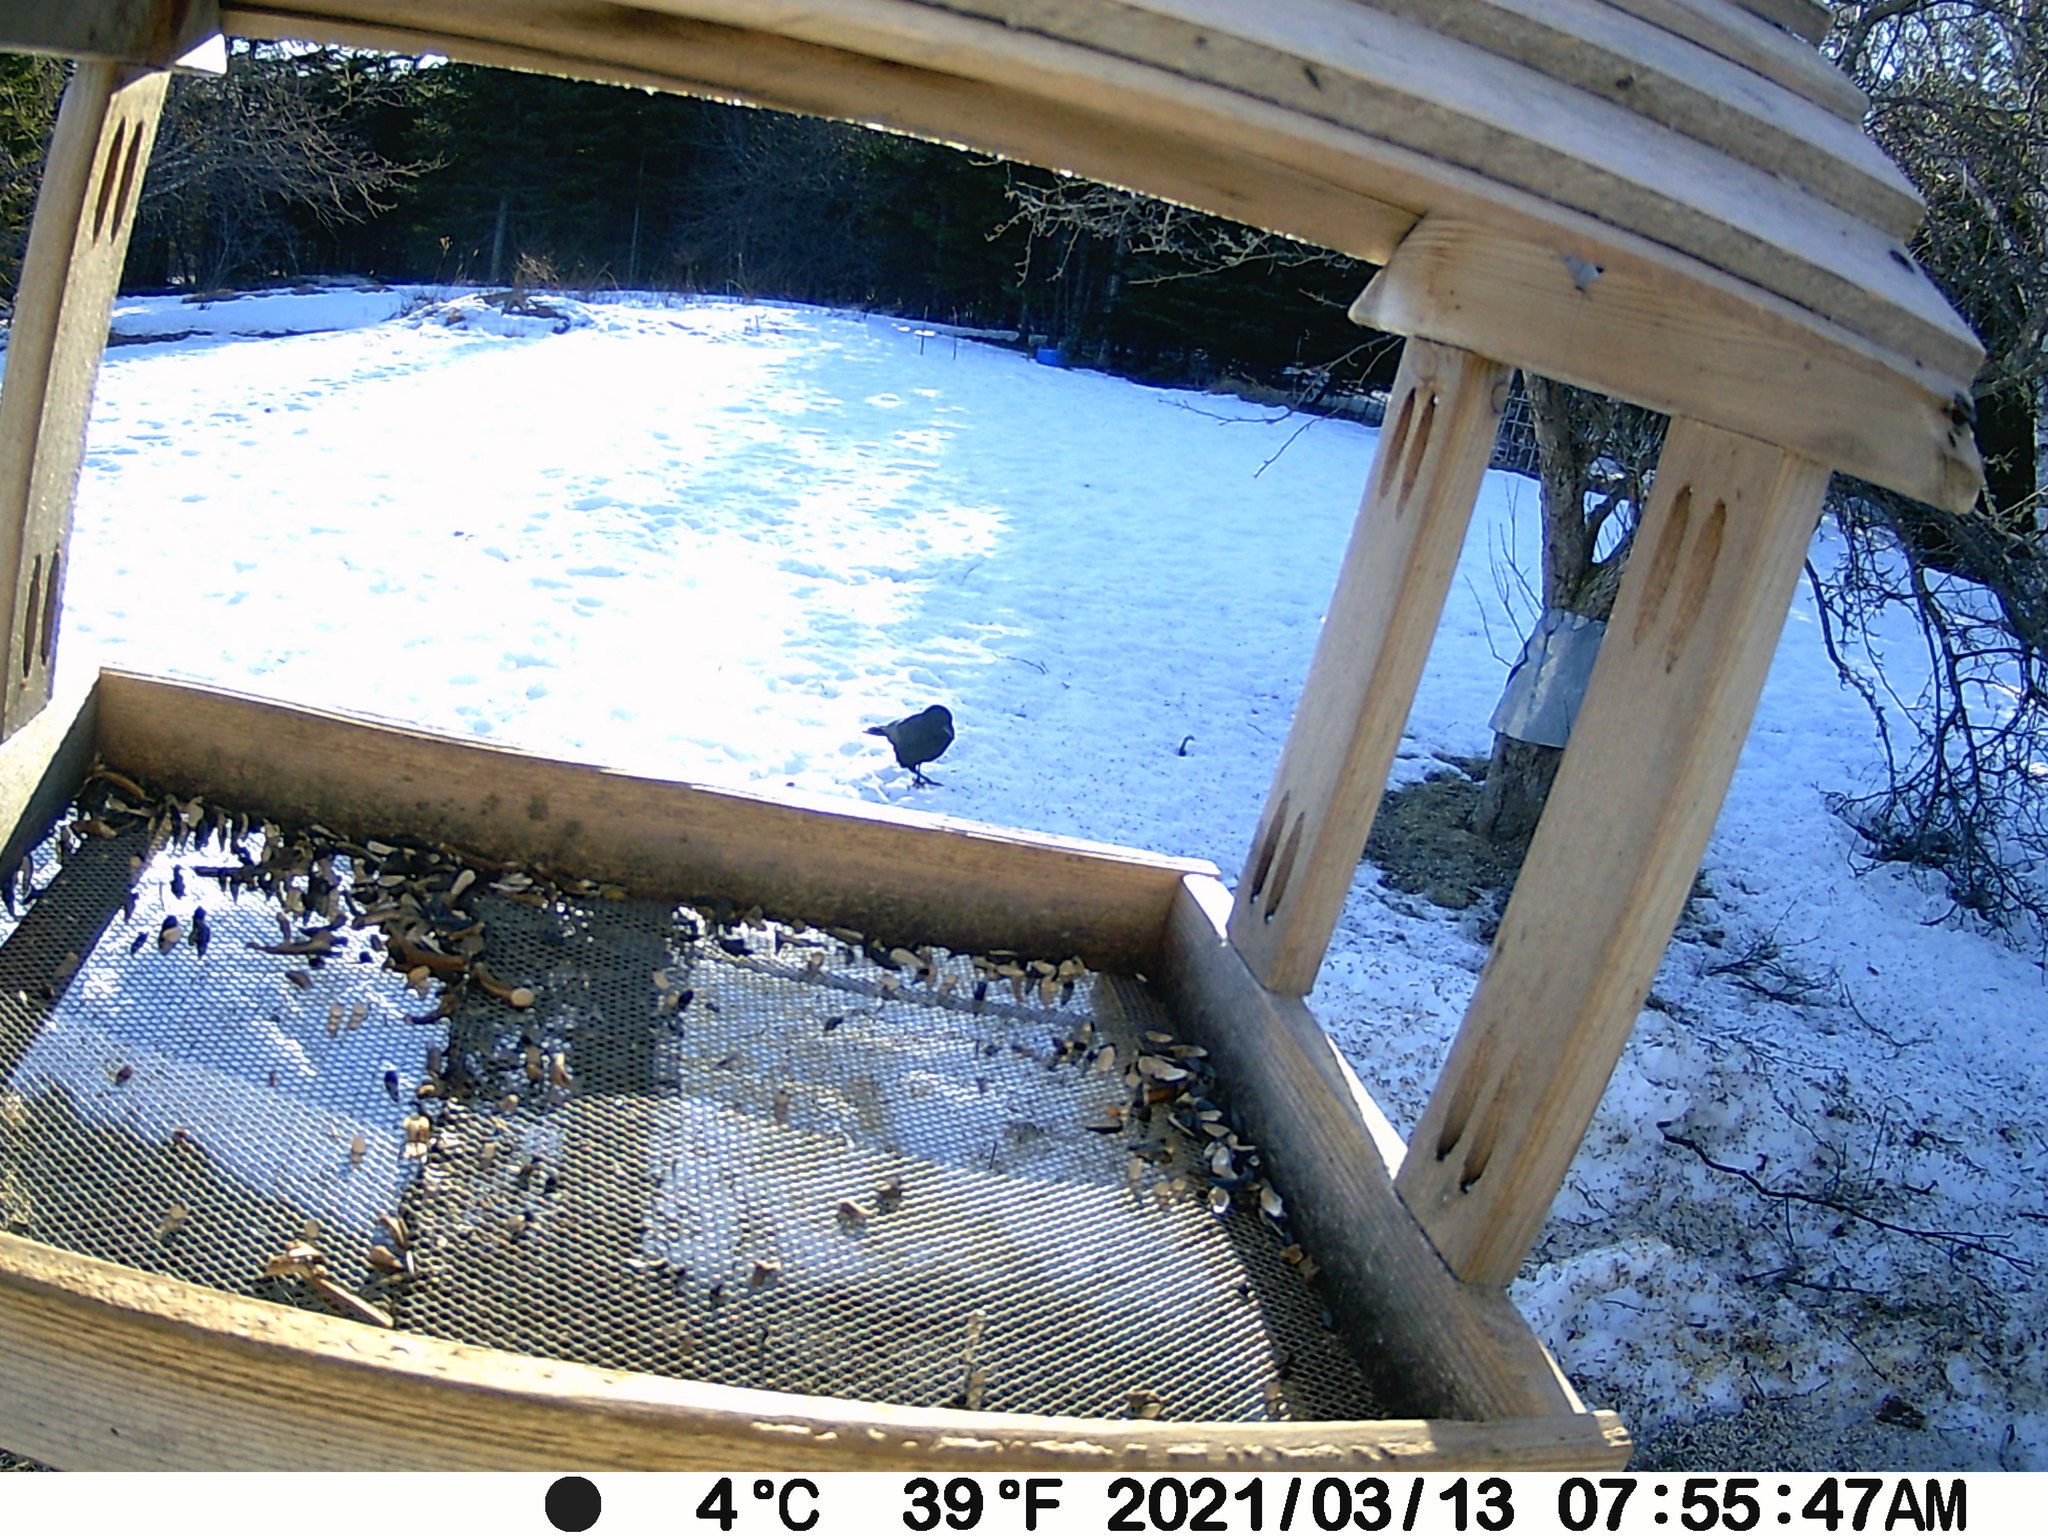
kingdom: Animalia
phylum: Chordata
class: Aves
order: Passeriformes
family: Corvidae
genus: Corvus
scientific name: Corvus brachyrhynchos
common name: American crow
